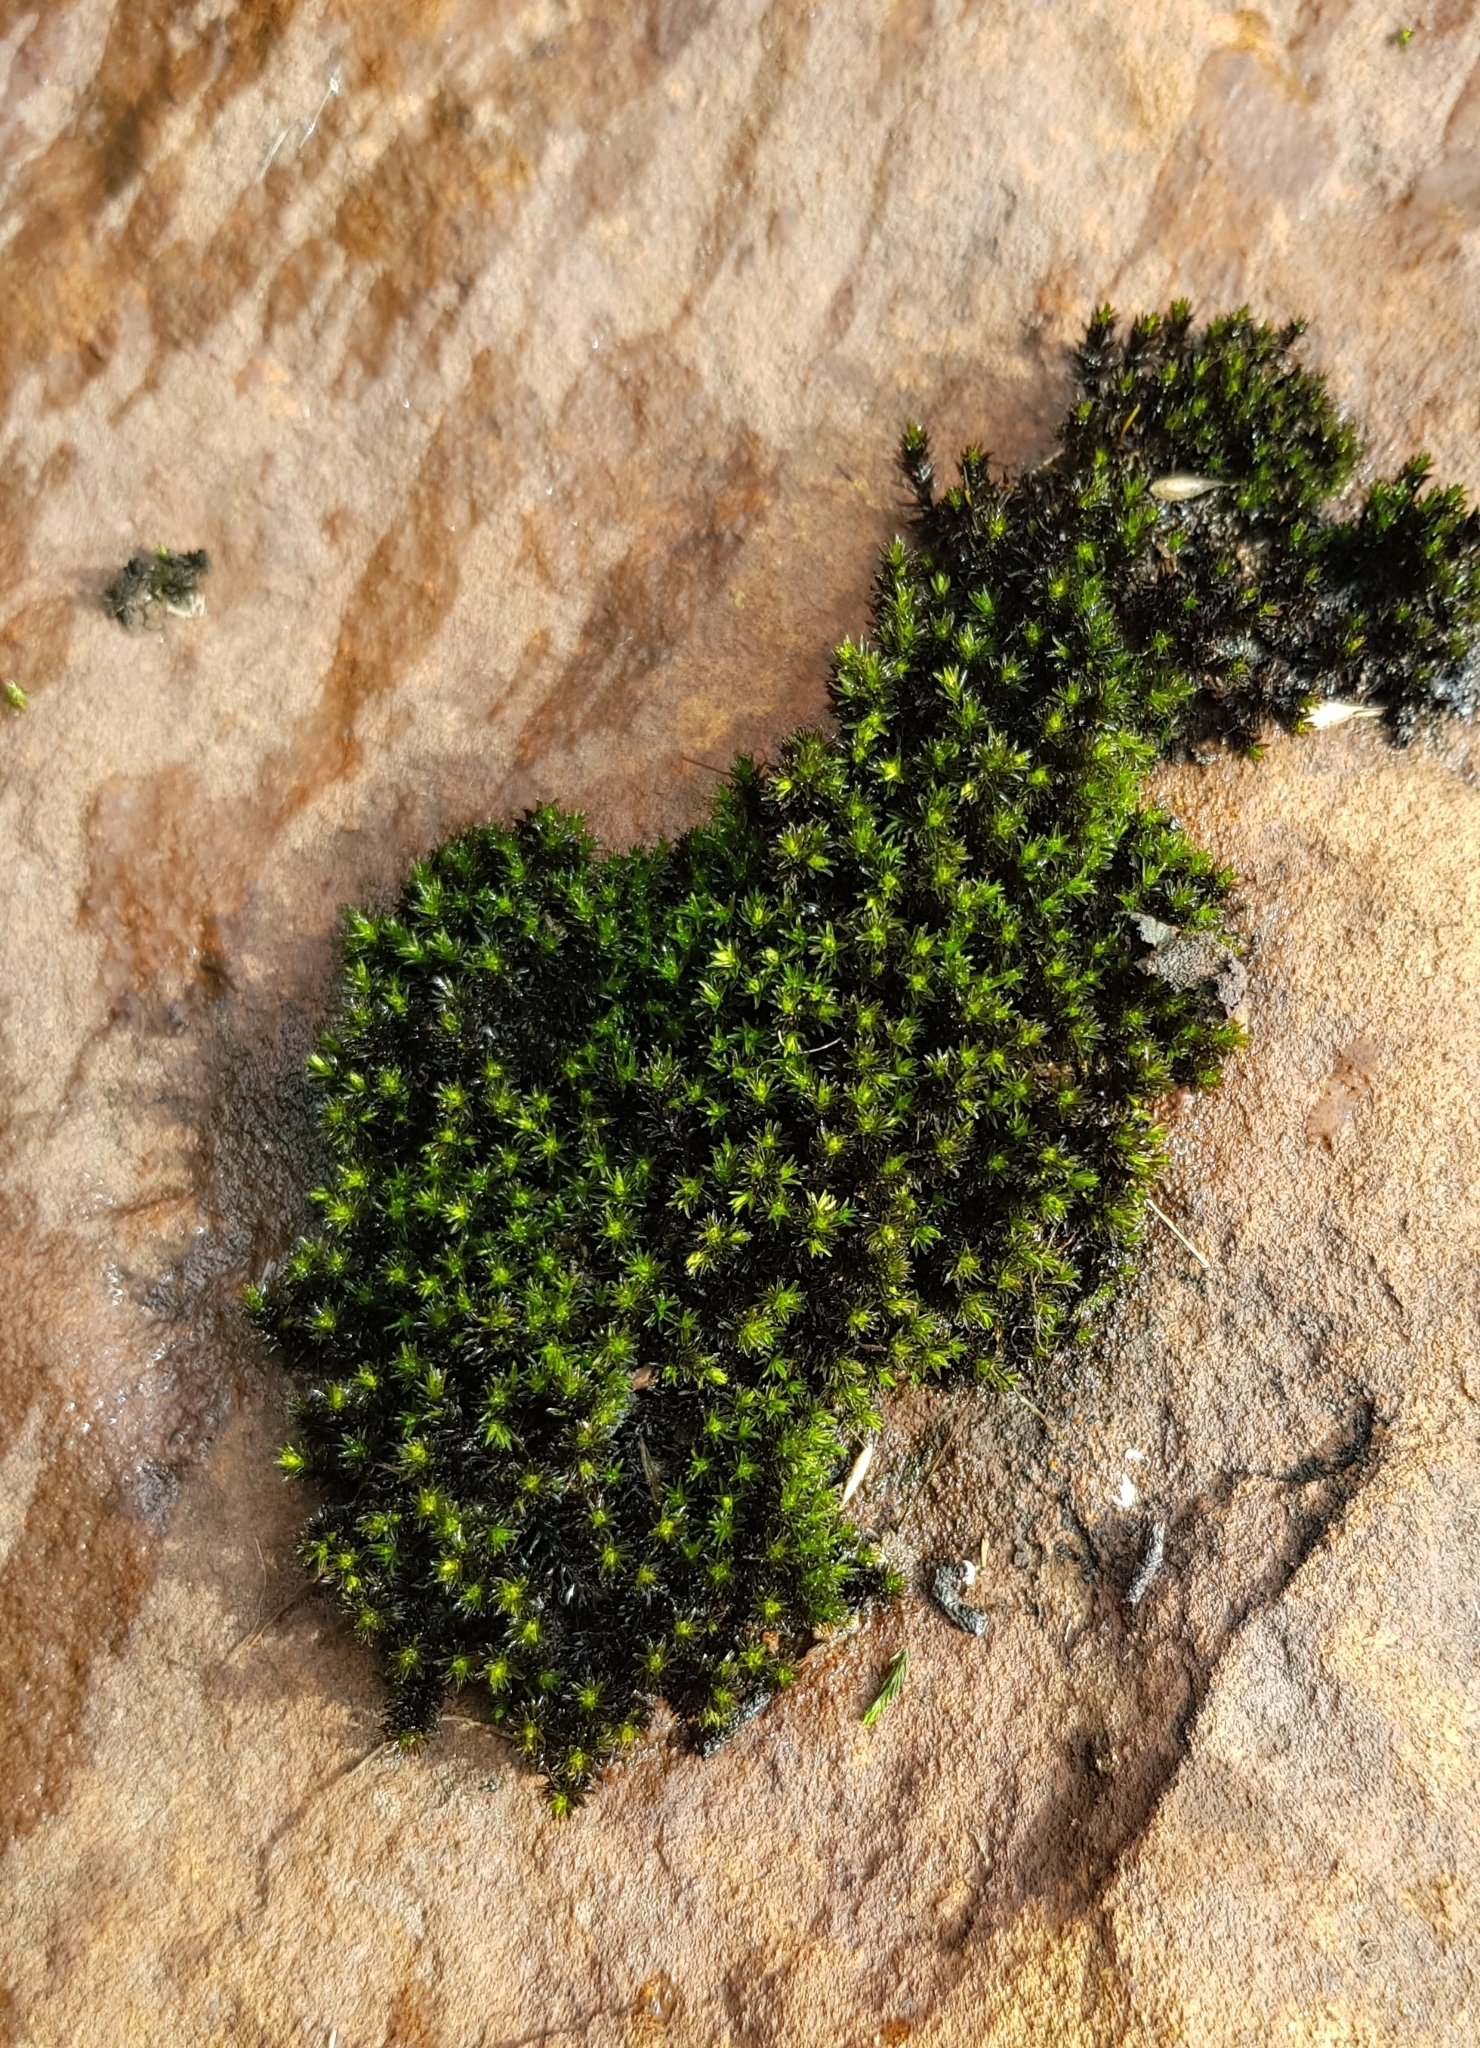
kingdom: Plantae
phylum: Bryophyta
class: Bryopsida
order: Grimmiales
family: Grimmiaceae
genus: Codriophorus
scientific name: Codriophorus acicularis
